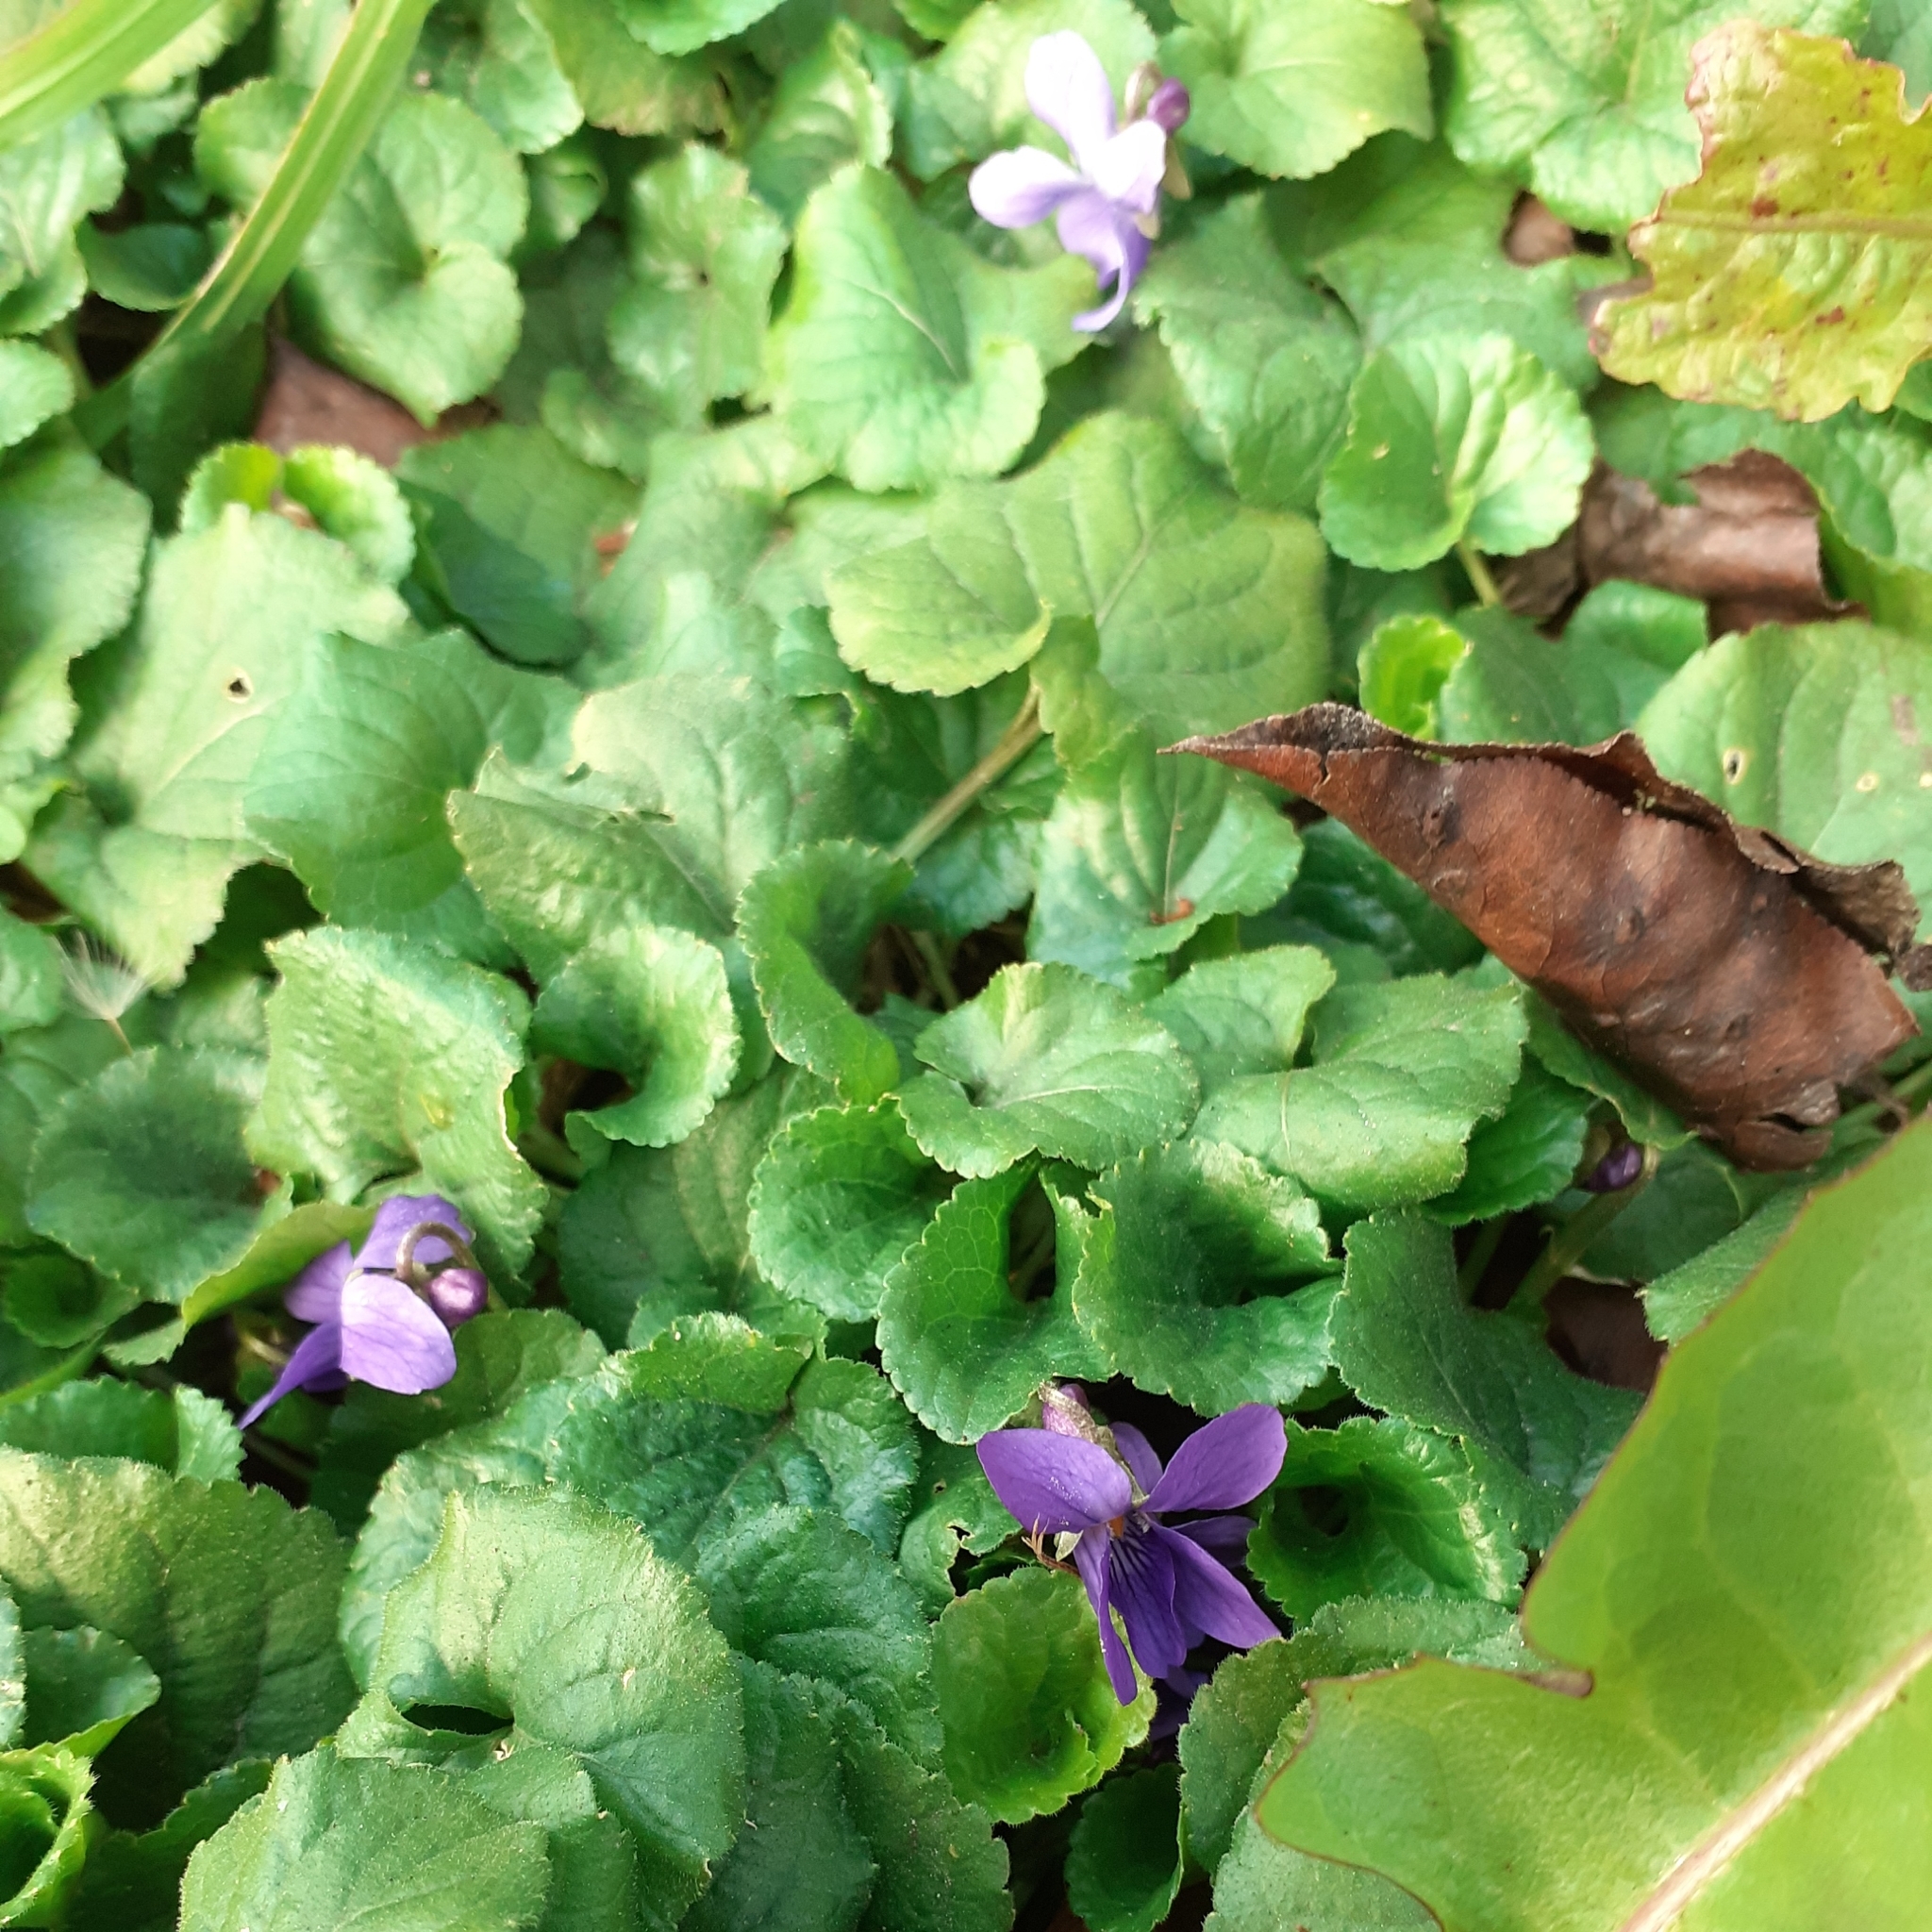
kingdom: Plantae
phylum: Tracheophyta
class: Magnoliopsida
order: Malpighiales
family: Violaceae
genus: Viola
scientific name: Viola odorata
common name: Sweet violet
